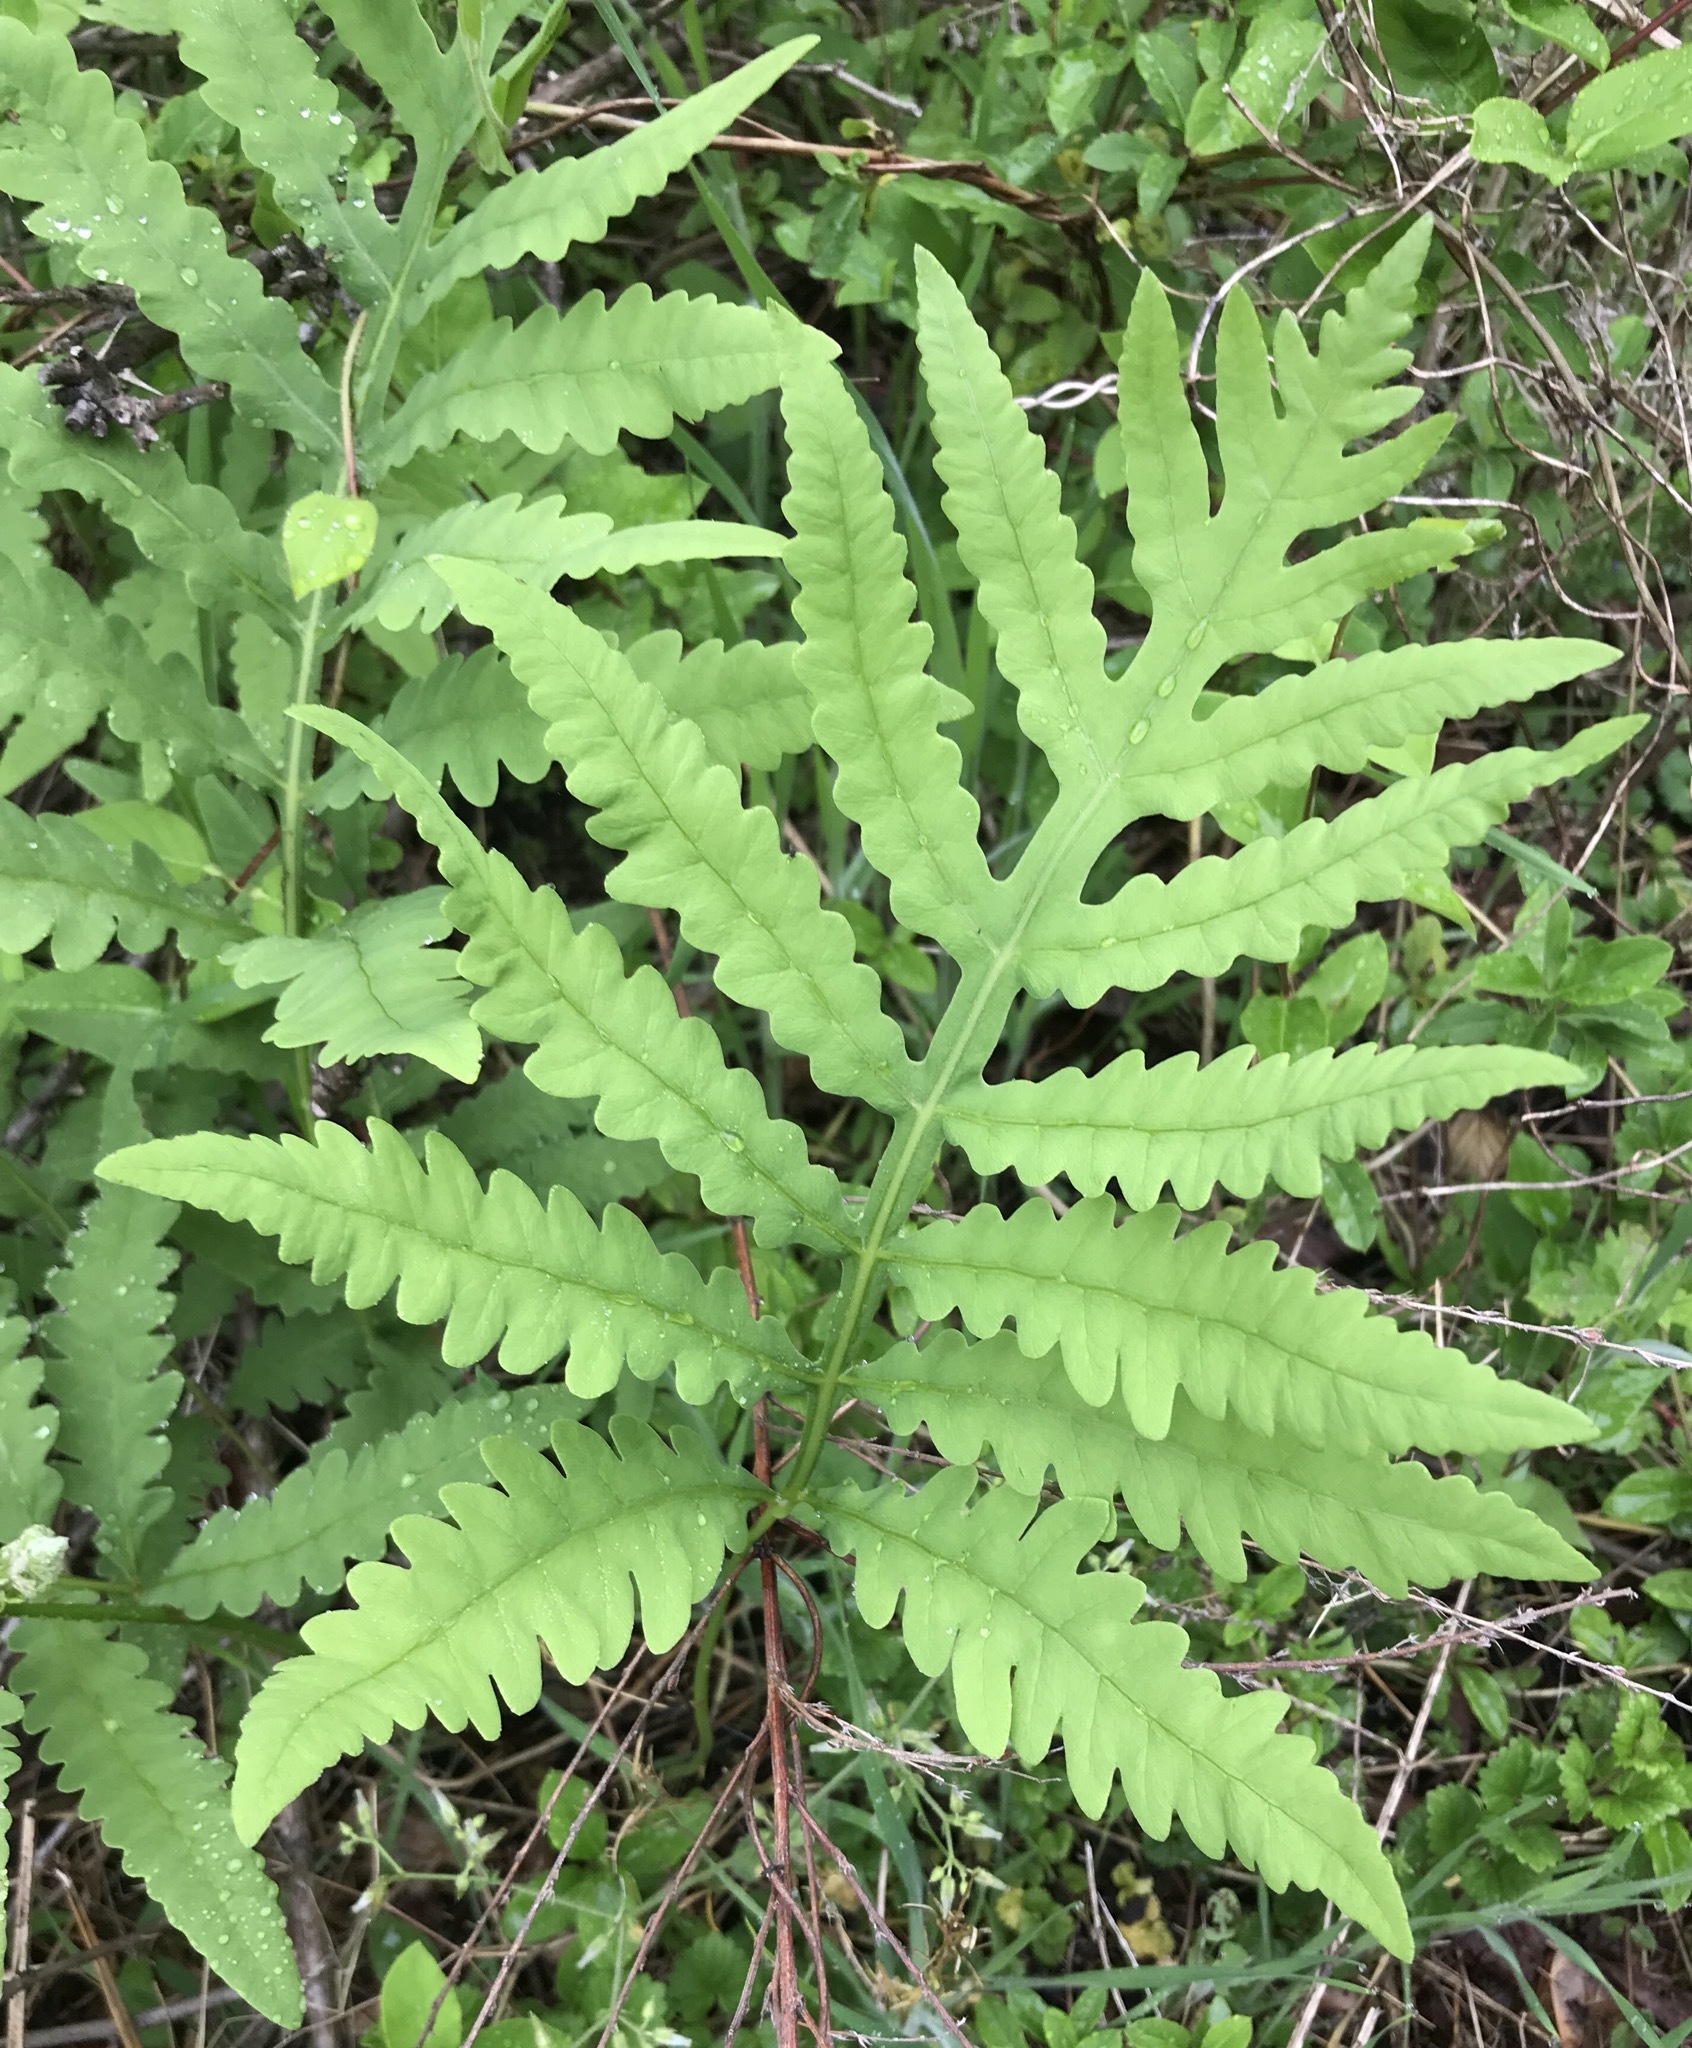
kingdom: Plantae
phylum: Tracheophyta
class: Polypodiopsida
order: Polypodiales
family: Onocleaceae
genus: Onoclea
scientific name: Onoclea sensibilis
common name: Sensitive fern
